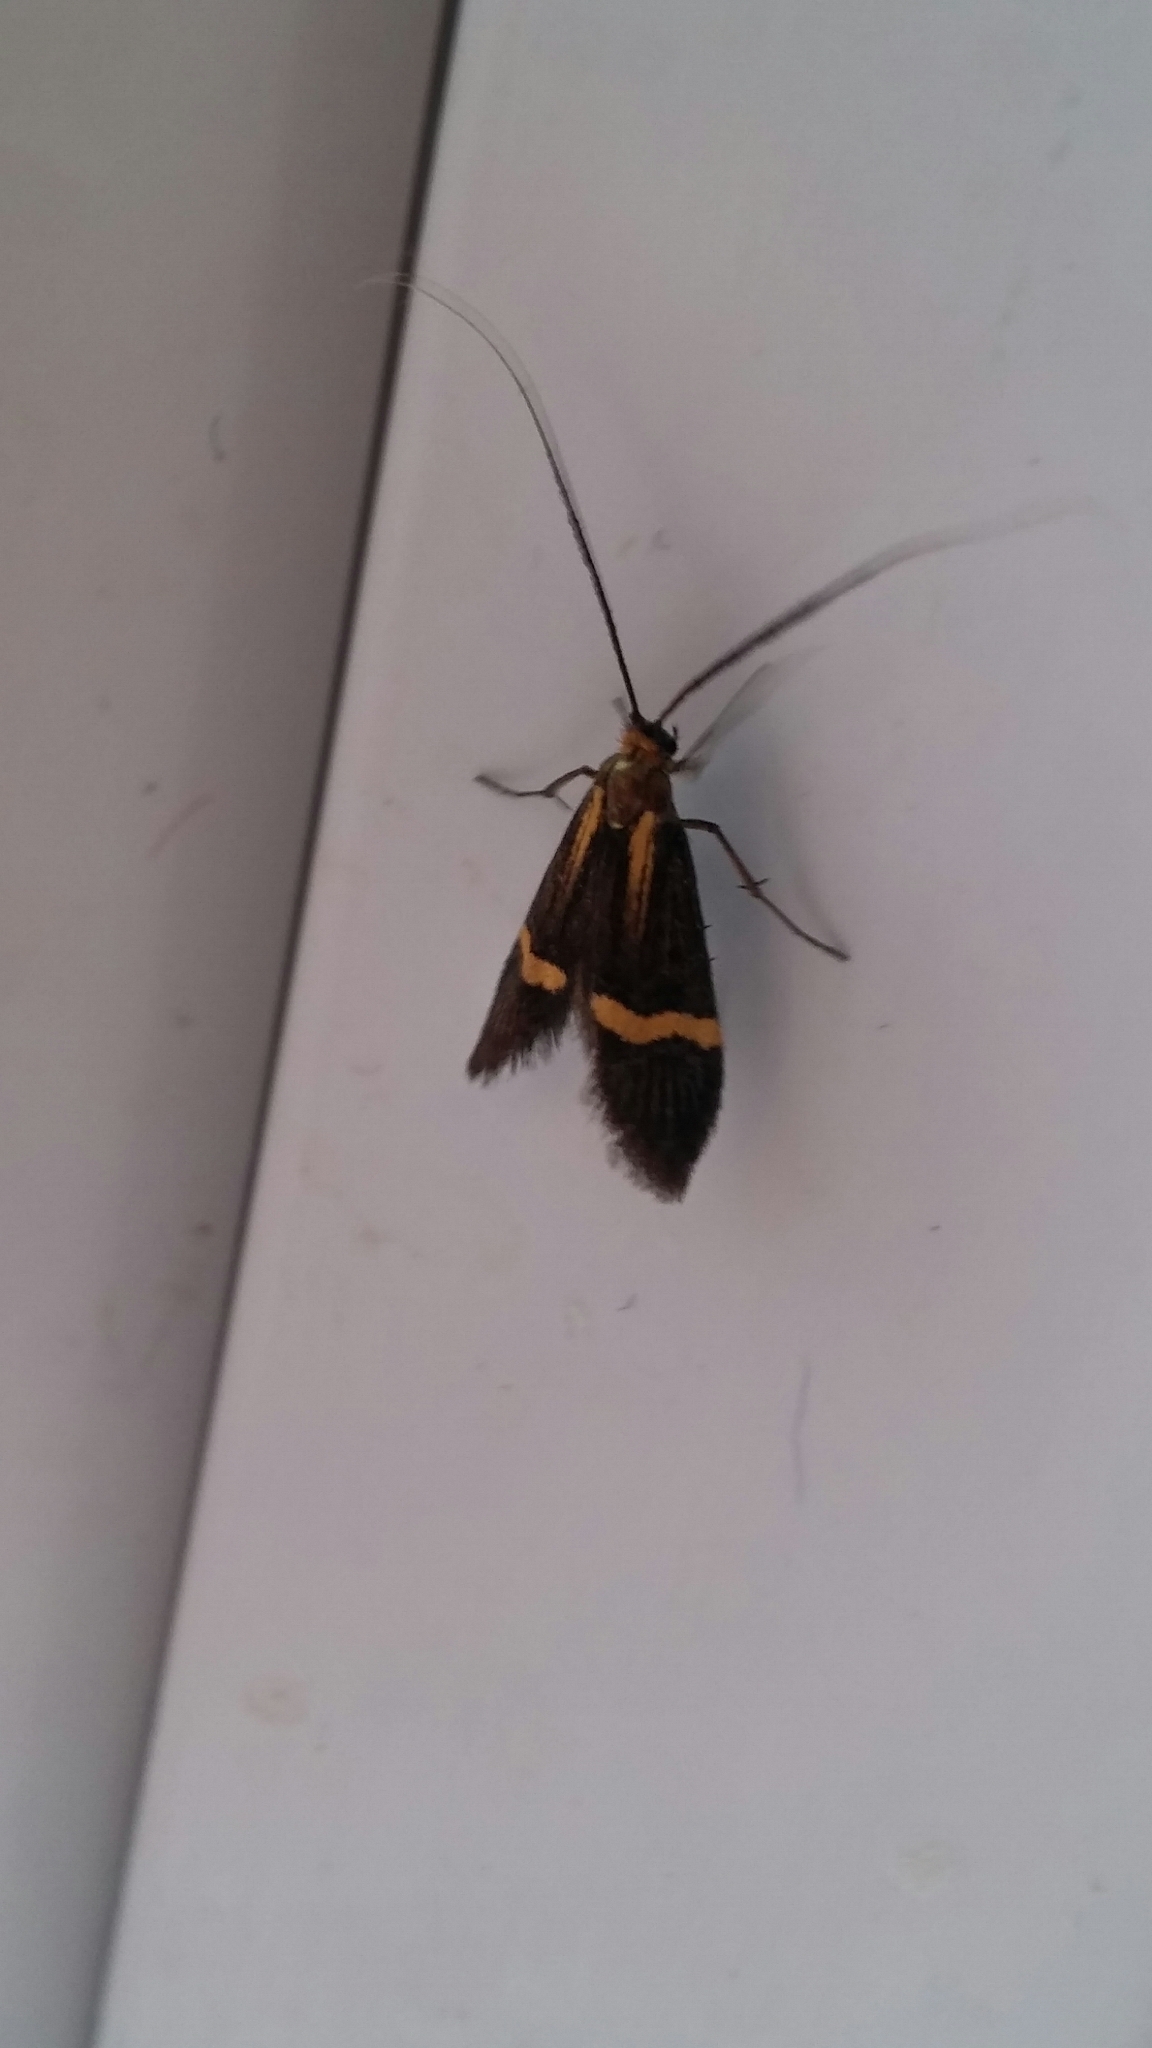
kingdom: Animalia
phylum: Arthropoda
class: Insecta
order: Lepidoptera
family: Adelidae
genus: Nemophora
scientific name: Nemophora degeerella
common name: Yellow-barred long-horn
